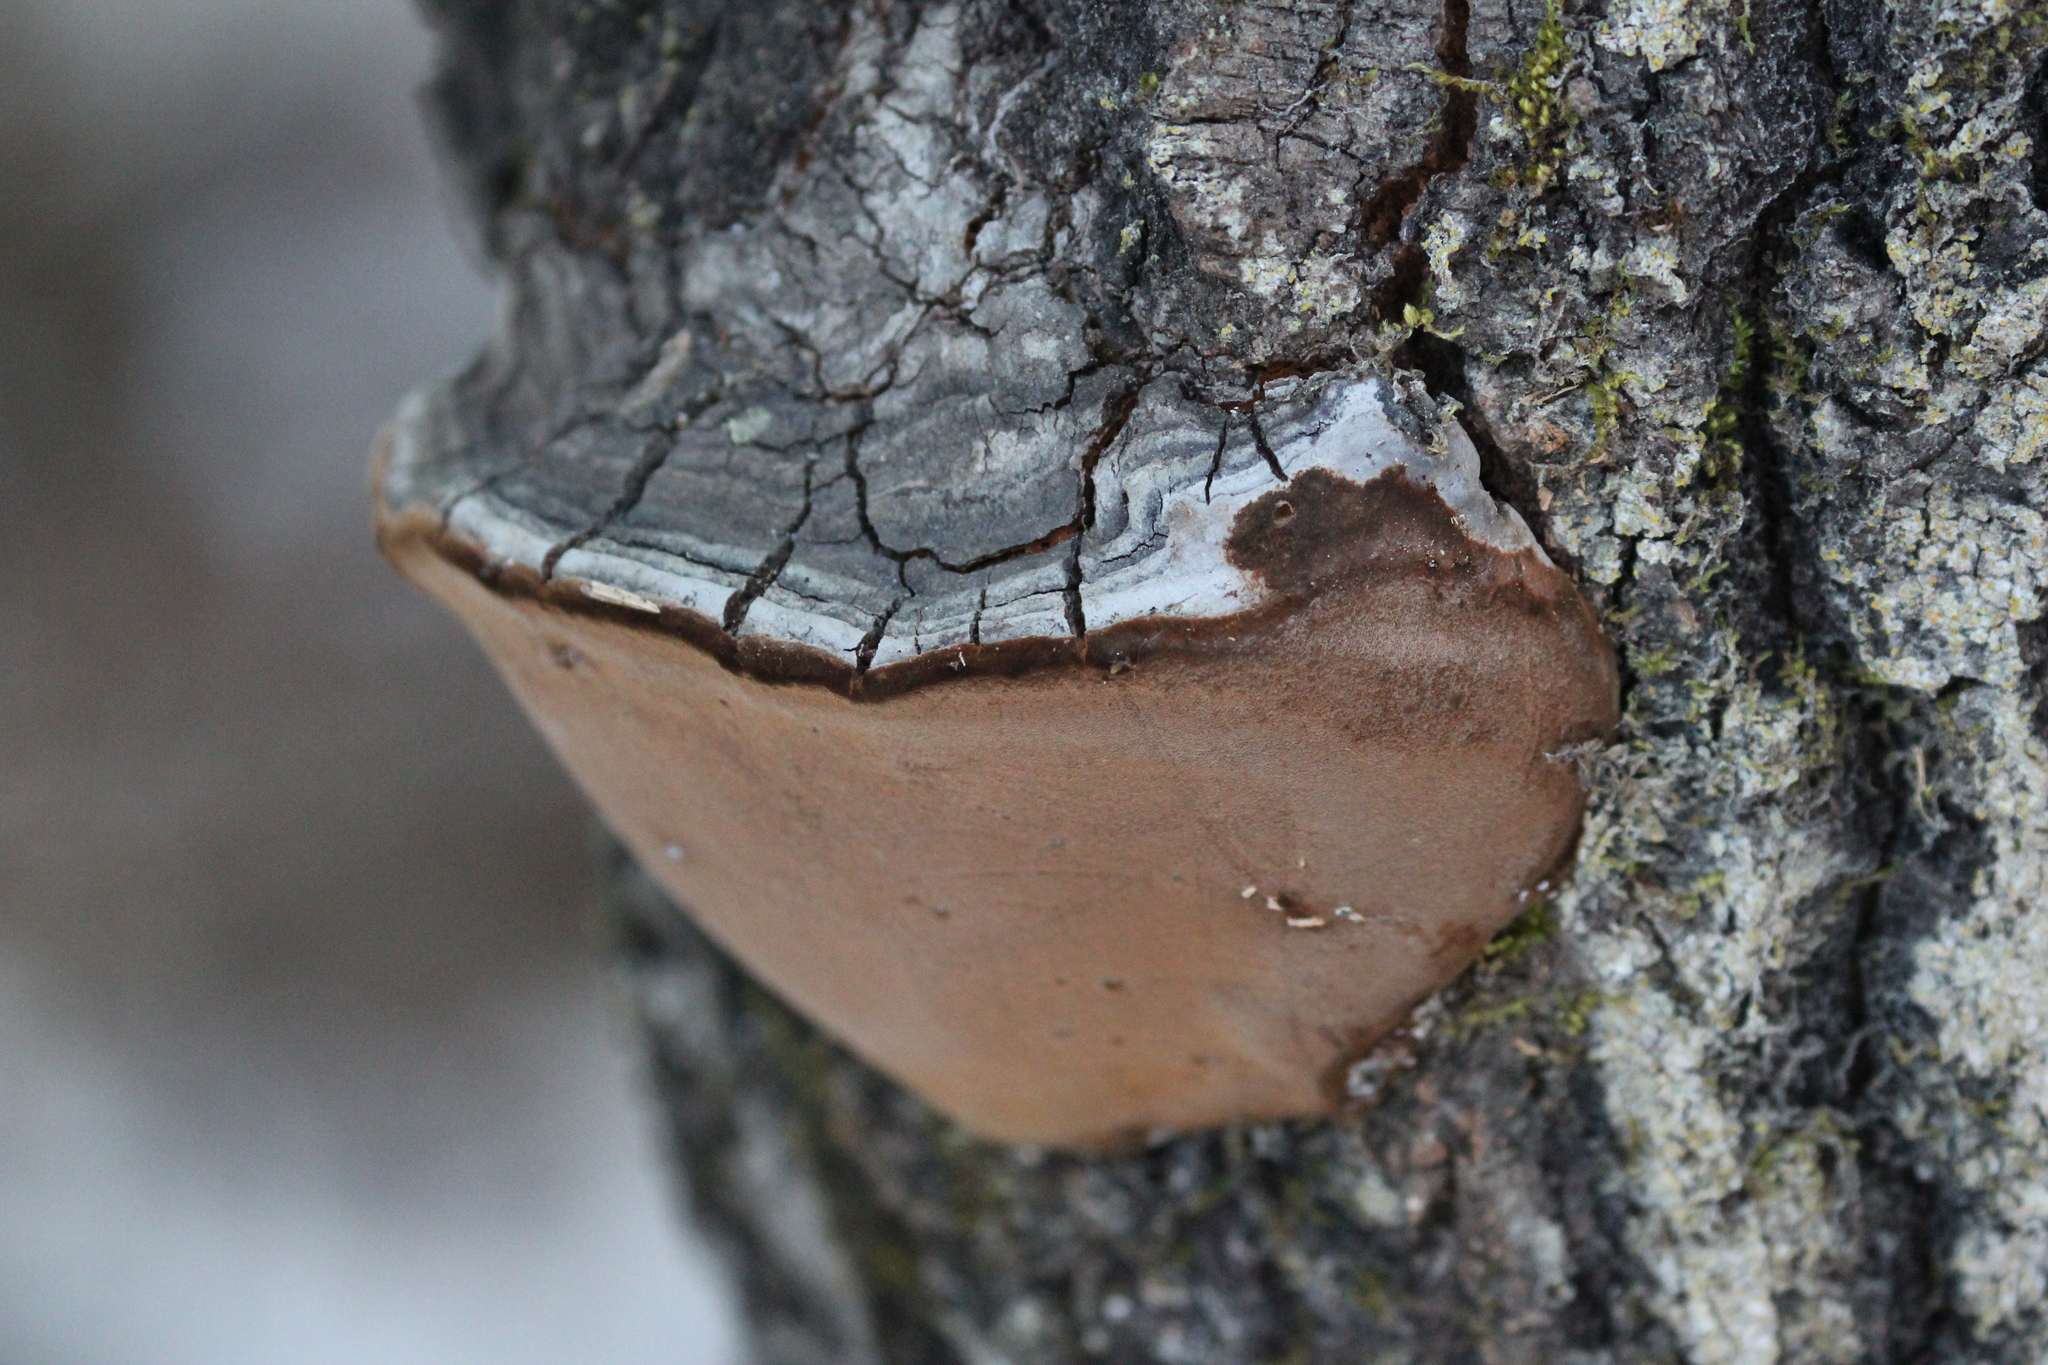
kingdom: Fungi
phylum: Basidiomycota
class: Agaricomycetes
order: Hymenochaetales
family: Hymenochaetaceae
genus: Phellinus
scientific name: Phellinus tremulae
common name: Aspen bracket
